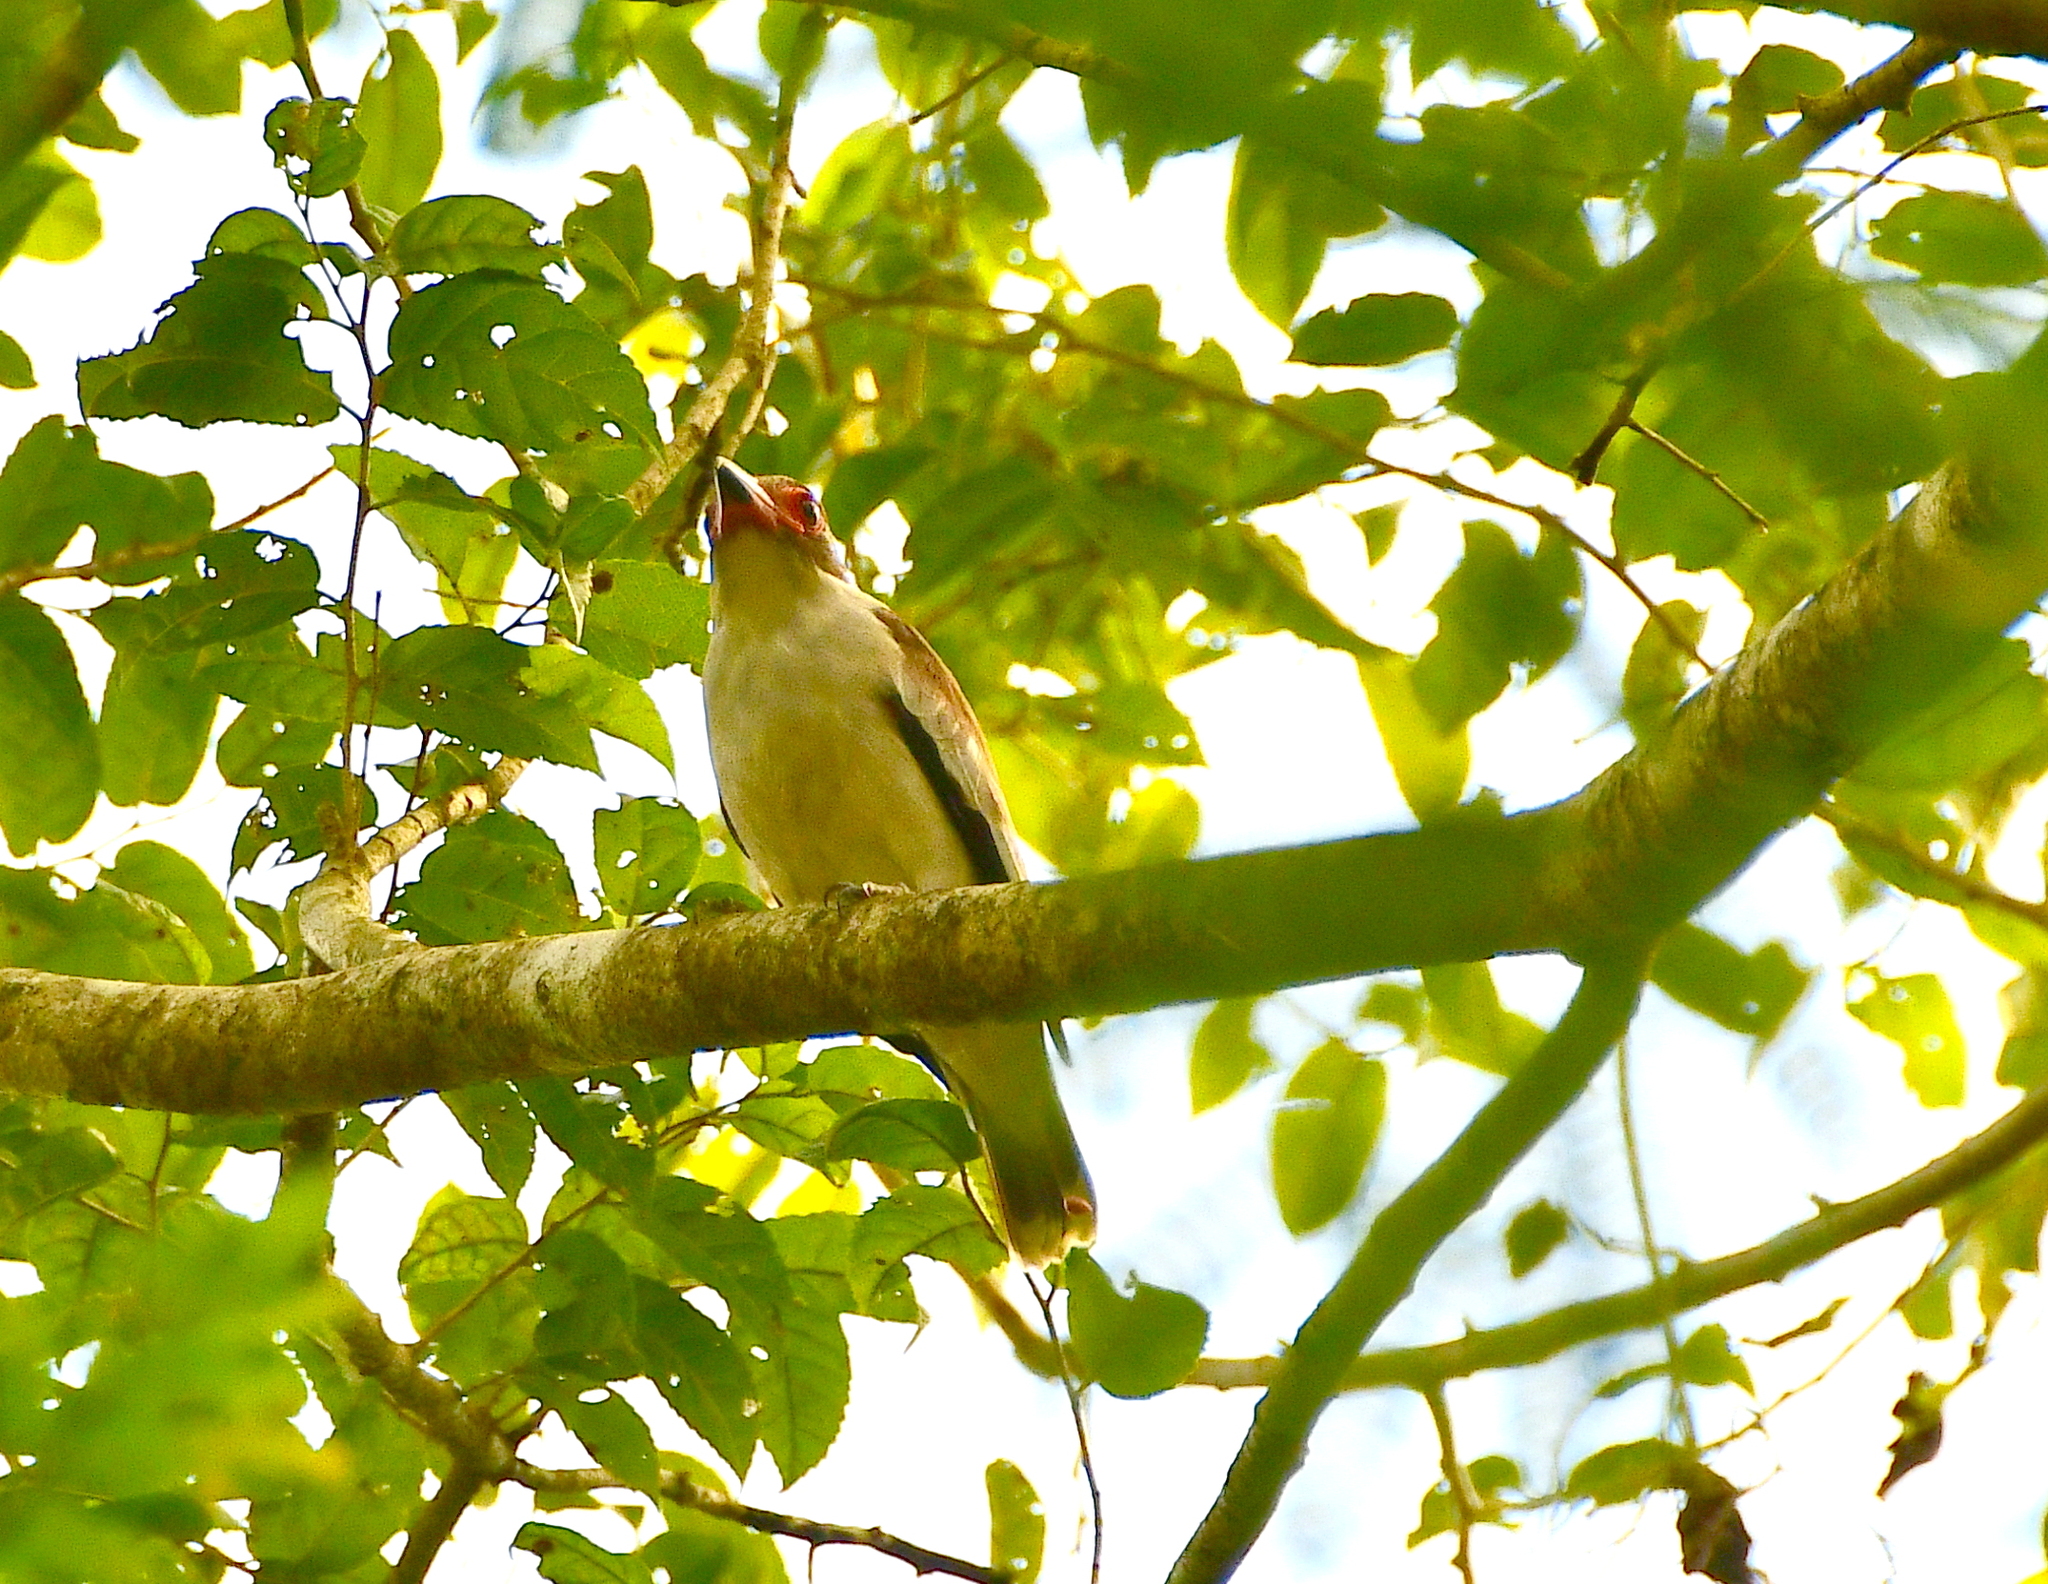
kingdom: Animalia
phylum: Chordata
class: Aves
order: Passeriformes
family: Cotingidae
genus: Tityra
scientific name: Tityra semifasciata
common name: Masked tityra
